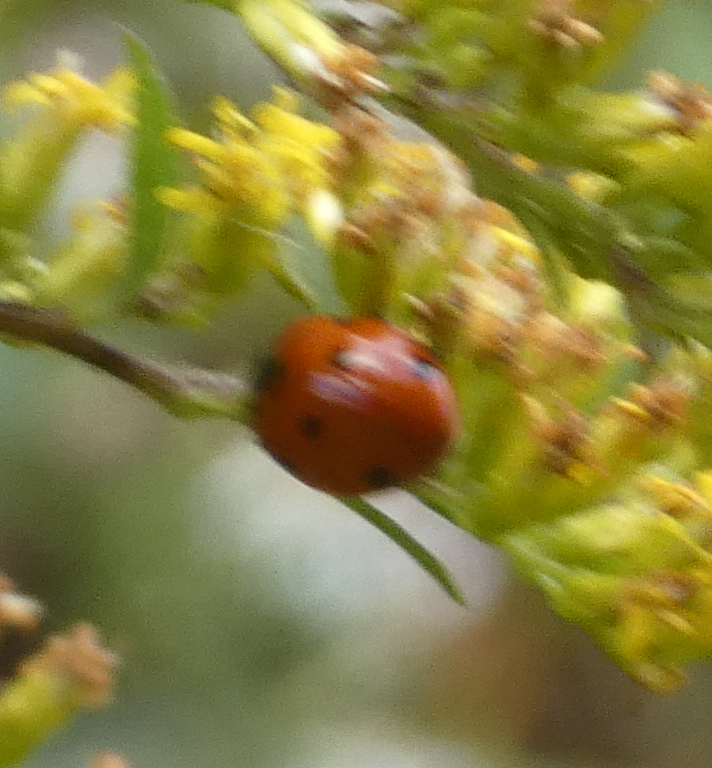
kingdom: Animalia
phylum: Arthropoda
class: Insecta
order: Coleoptera
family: Coccinellidae
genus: Coccinella
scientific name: Coccinella septempunctata
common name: Sevenspotted lady beetle
